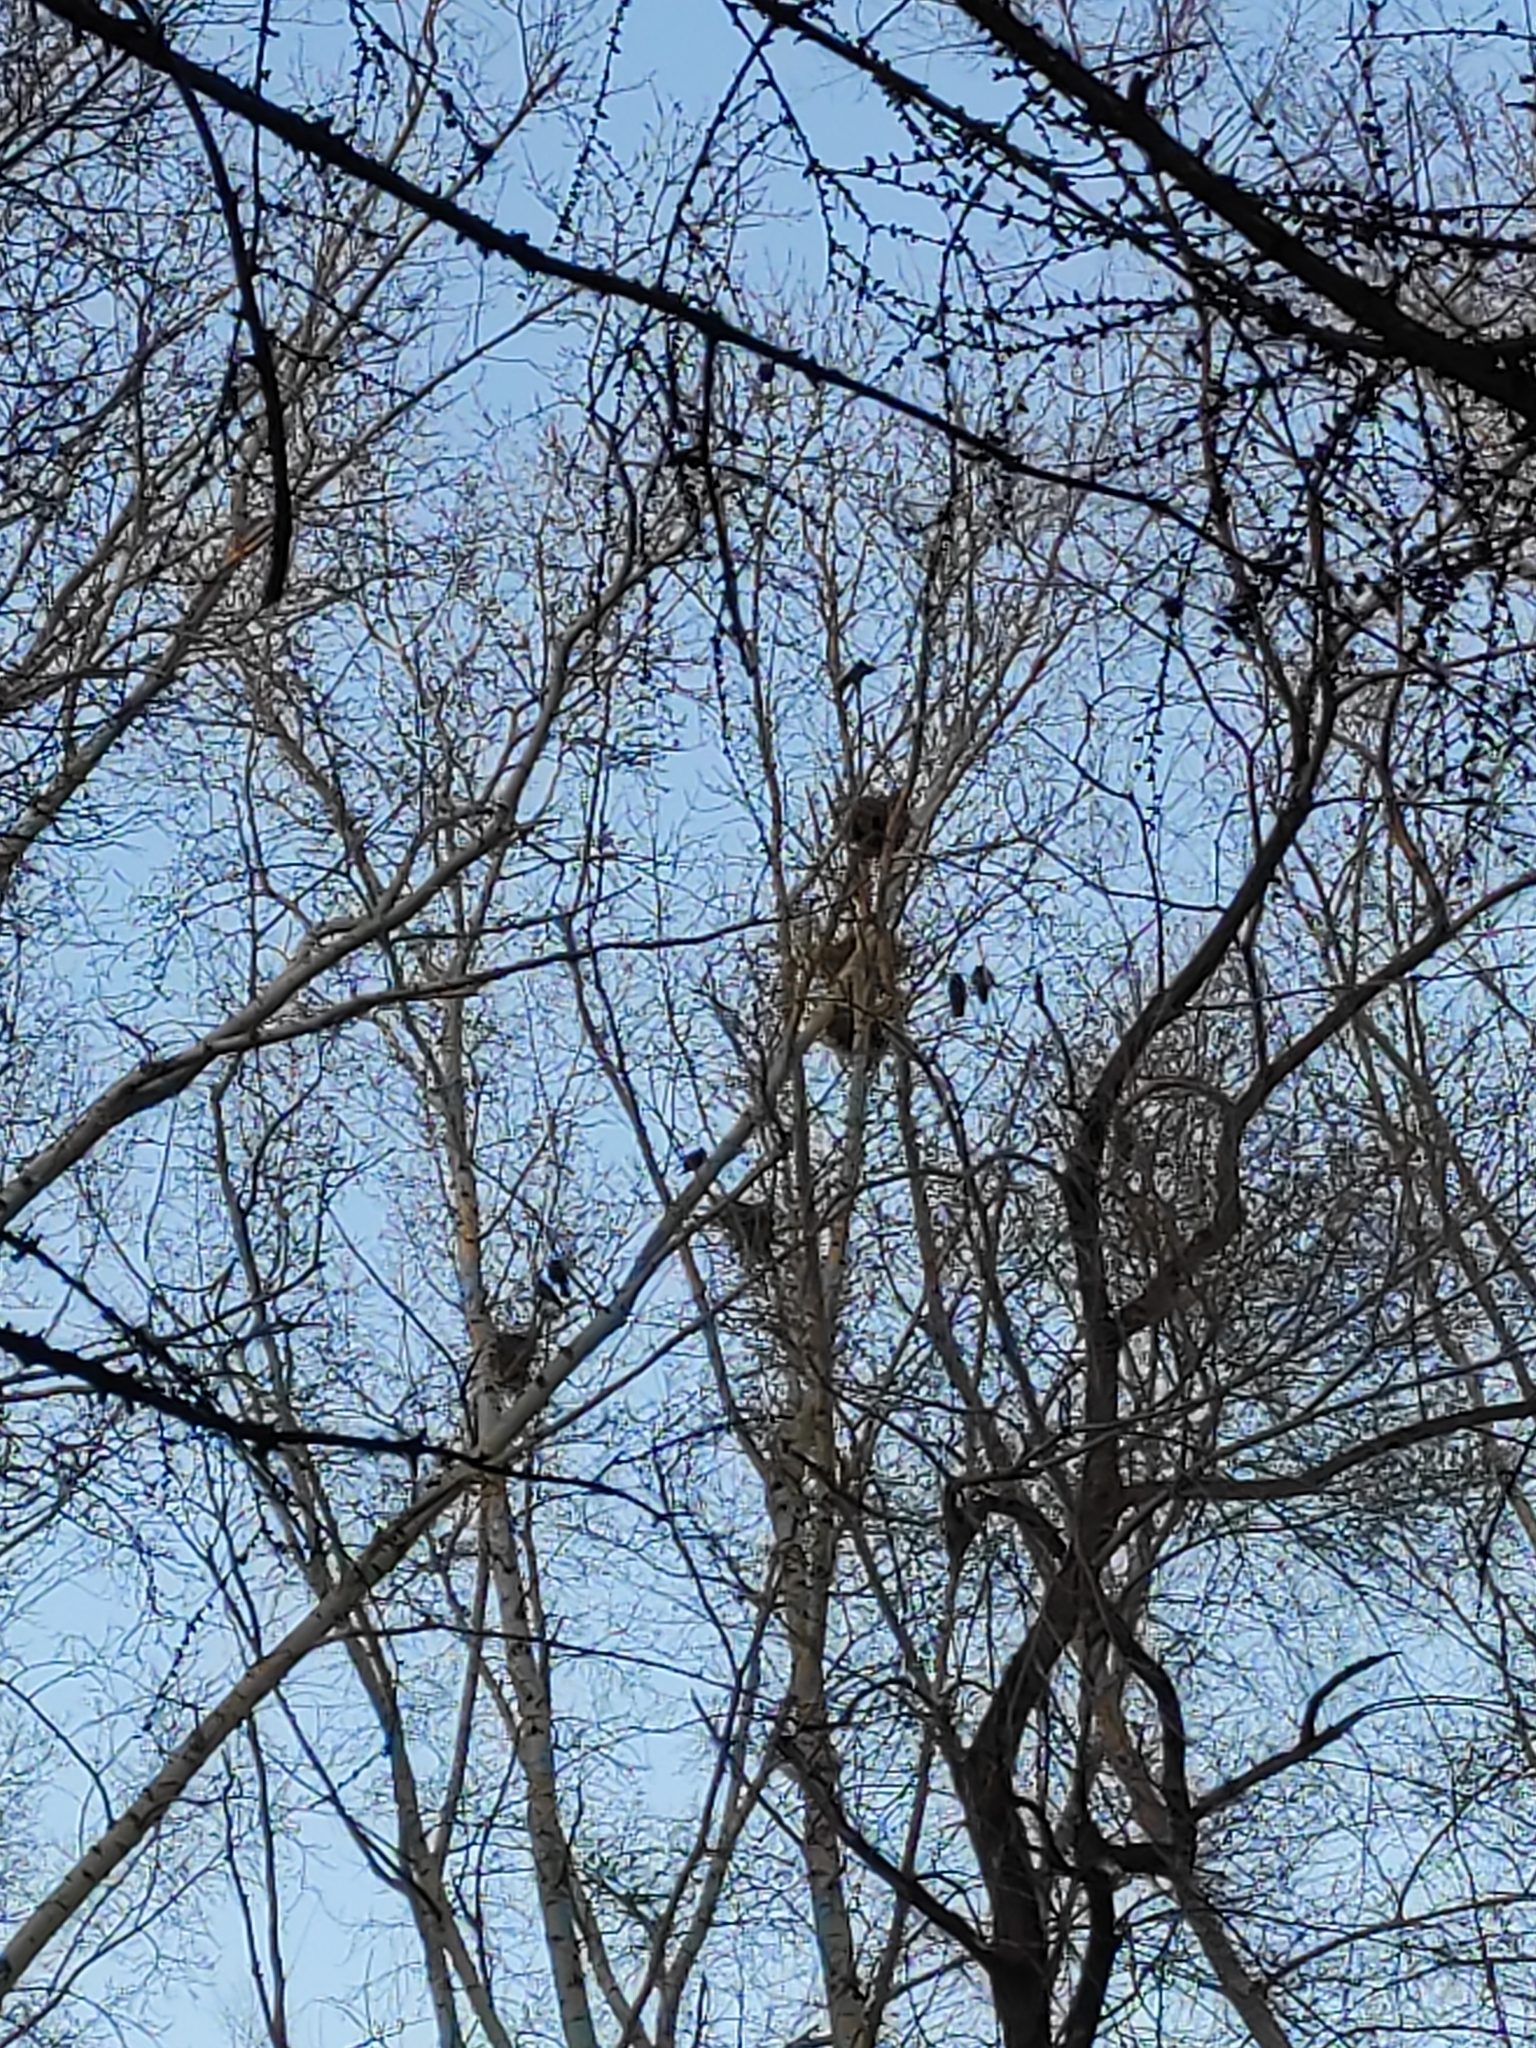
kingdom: Animalia
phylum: Chordata
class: Aves
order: Passeriformes
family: Corvidae
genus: Corvus
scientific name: Corvus frugilegus
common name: Rook
